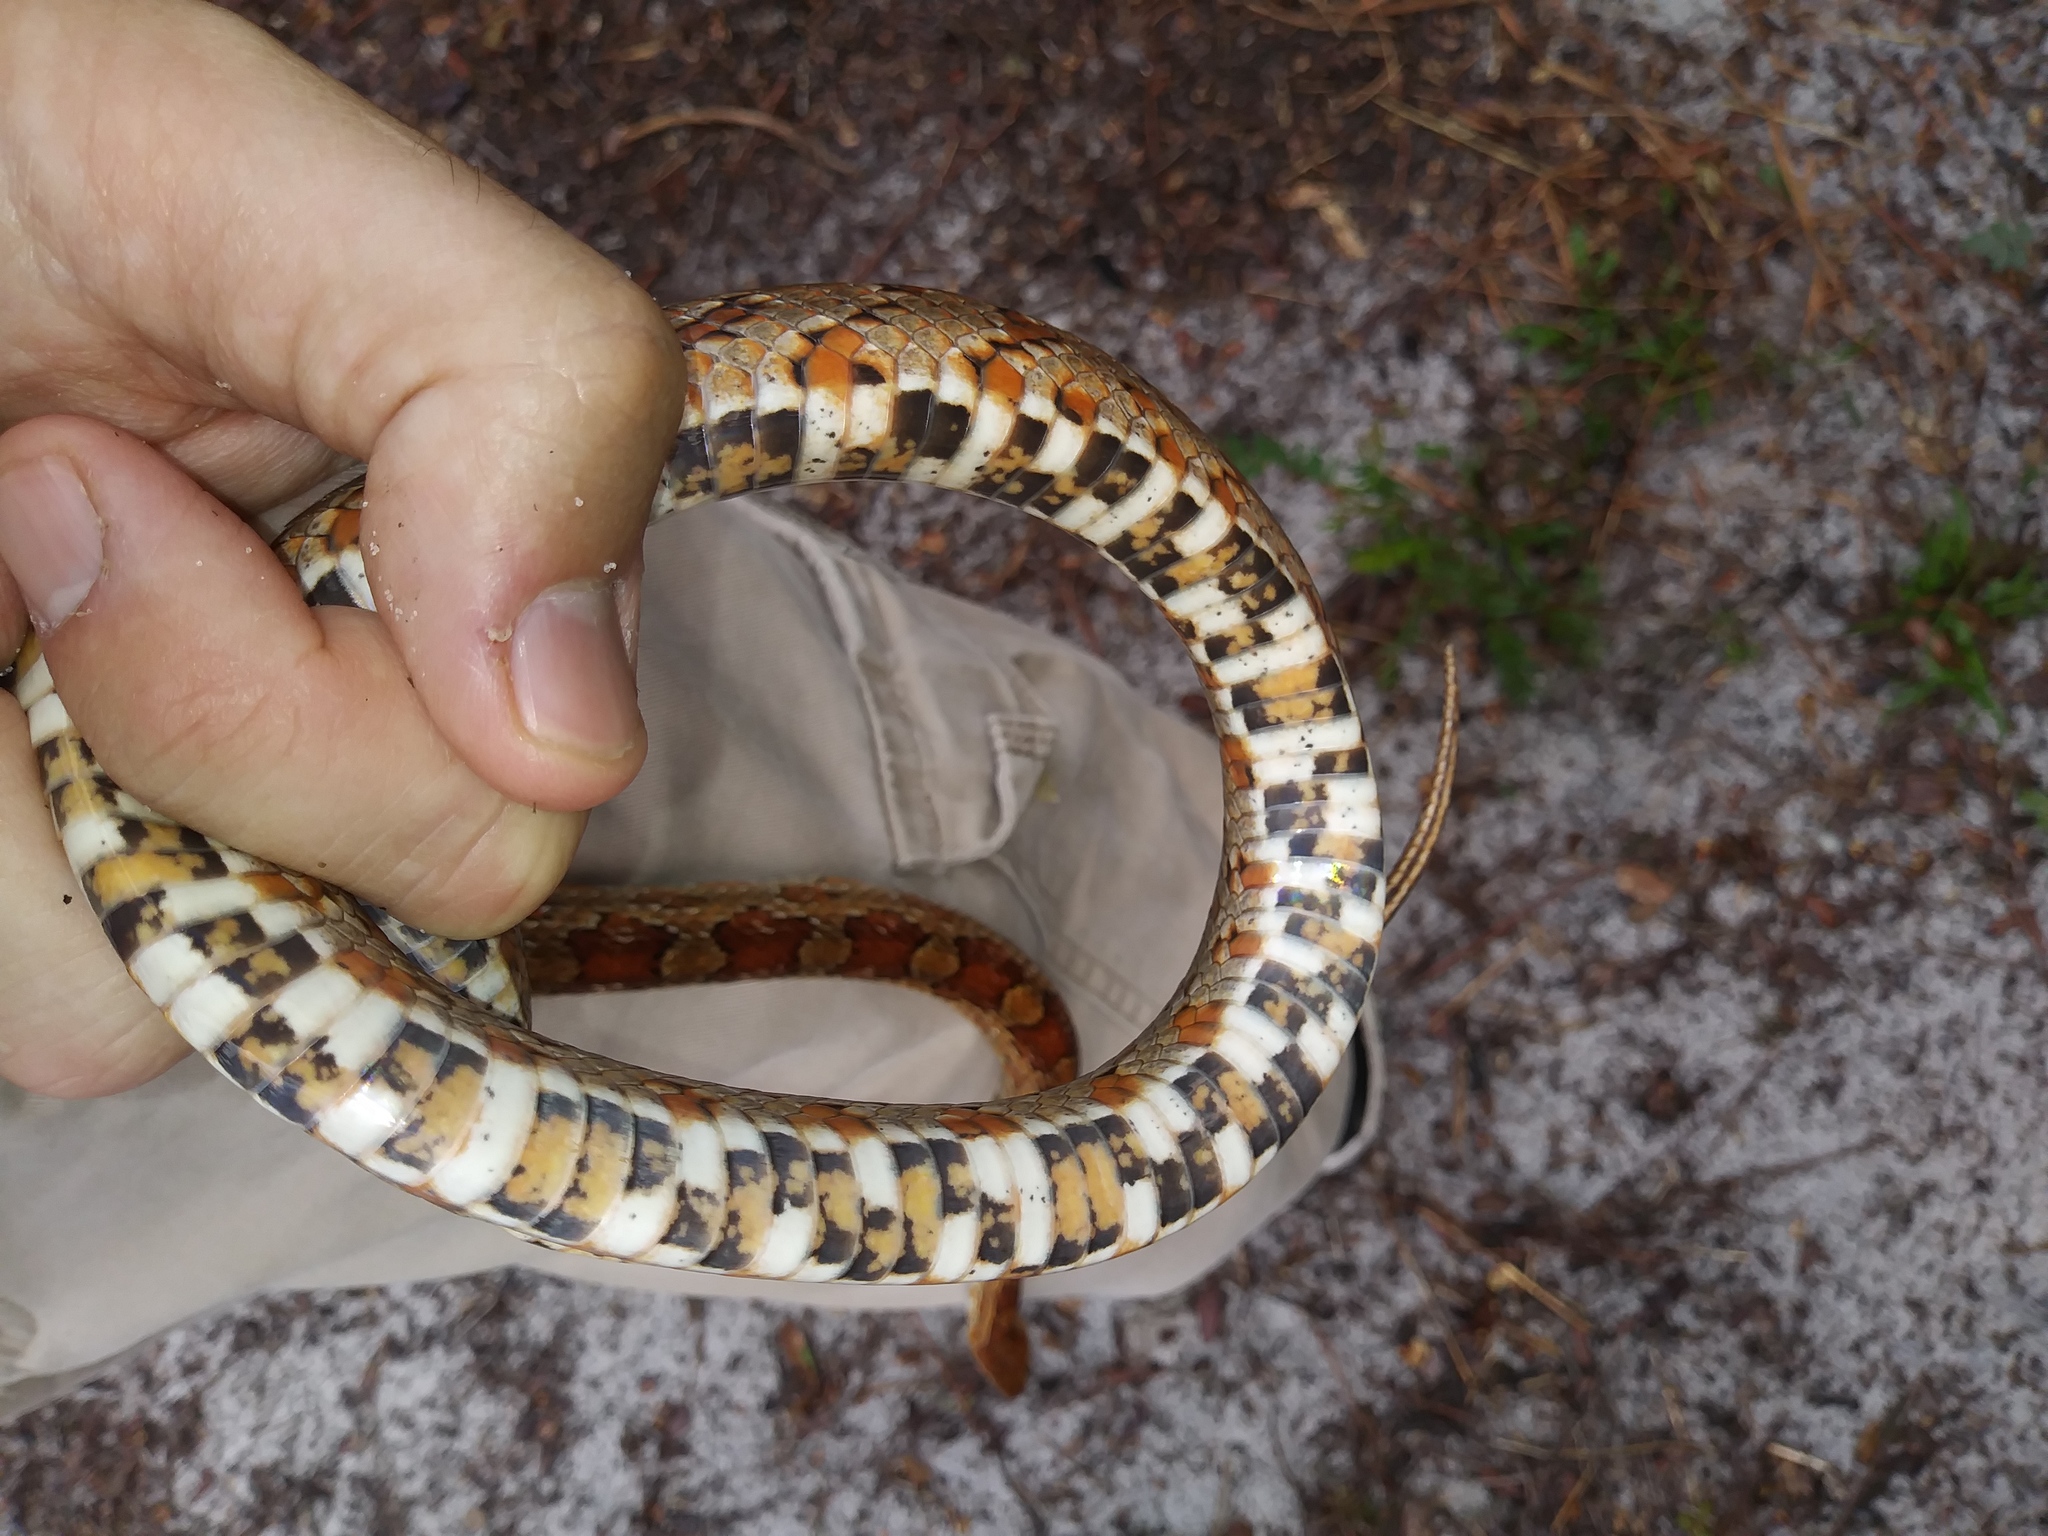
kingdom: Animalia
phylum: Chordata
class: Squamata
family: Colubridae
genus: Pantherophis
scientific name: Pantherophis guttatus
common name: Red cornsnake
